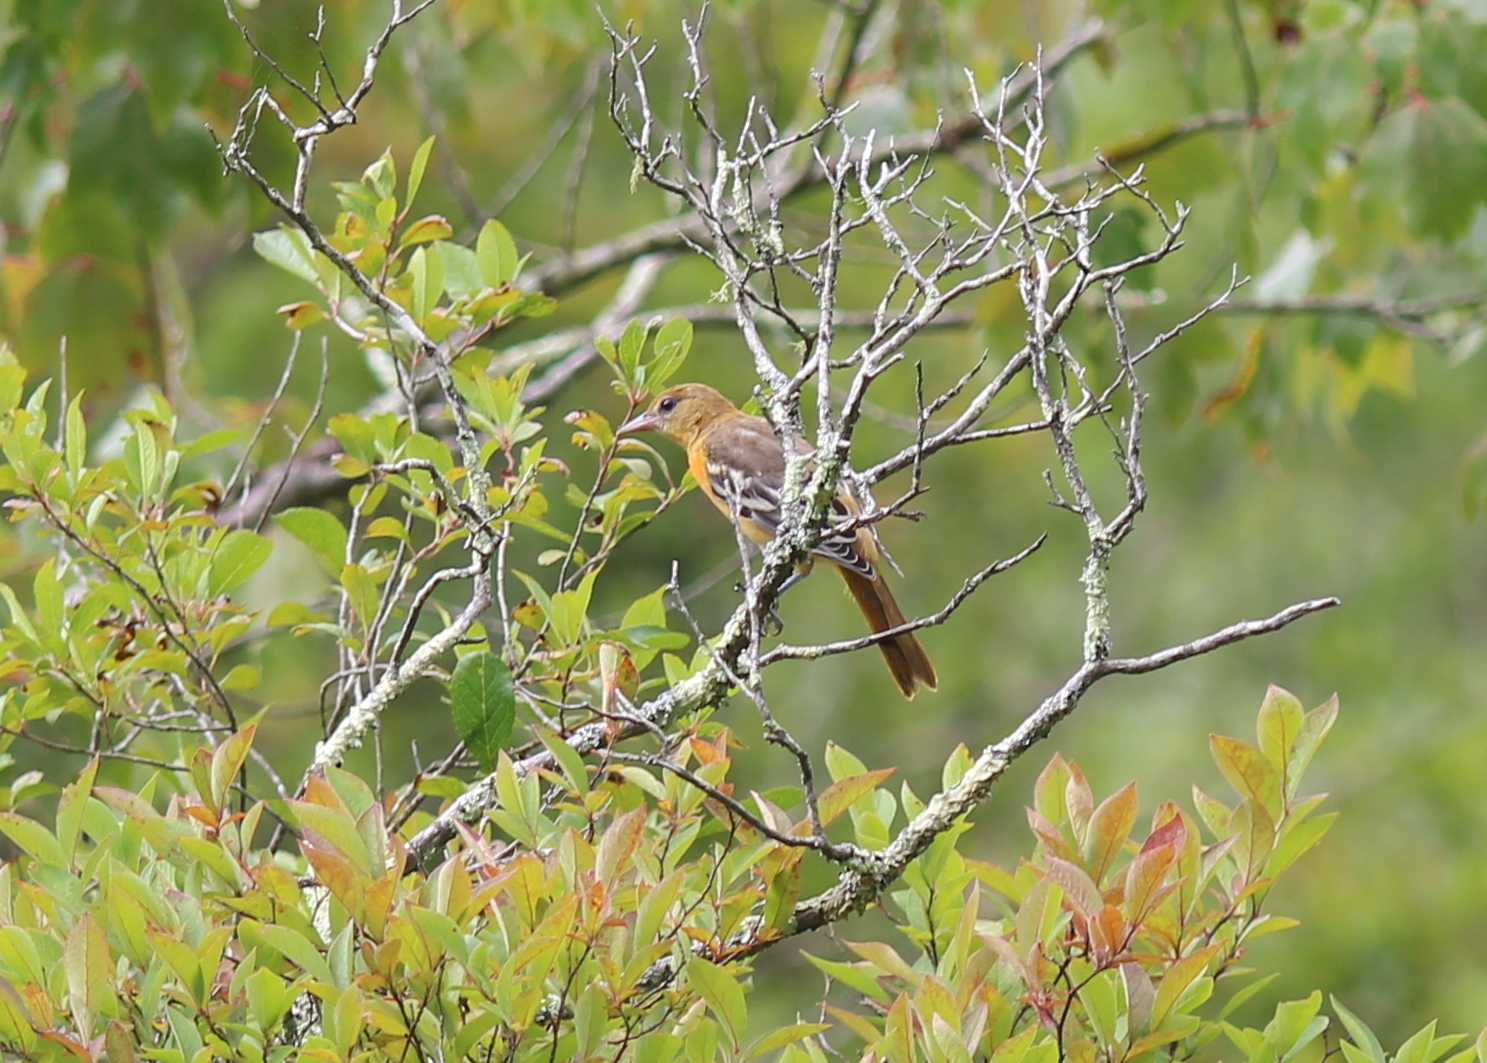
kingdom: Animalia
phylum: Chordata
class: Aves
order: Passeriformes
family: Icteridae
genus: Icterus
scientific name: Icterus galbula
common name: Baltimore oriole
